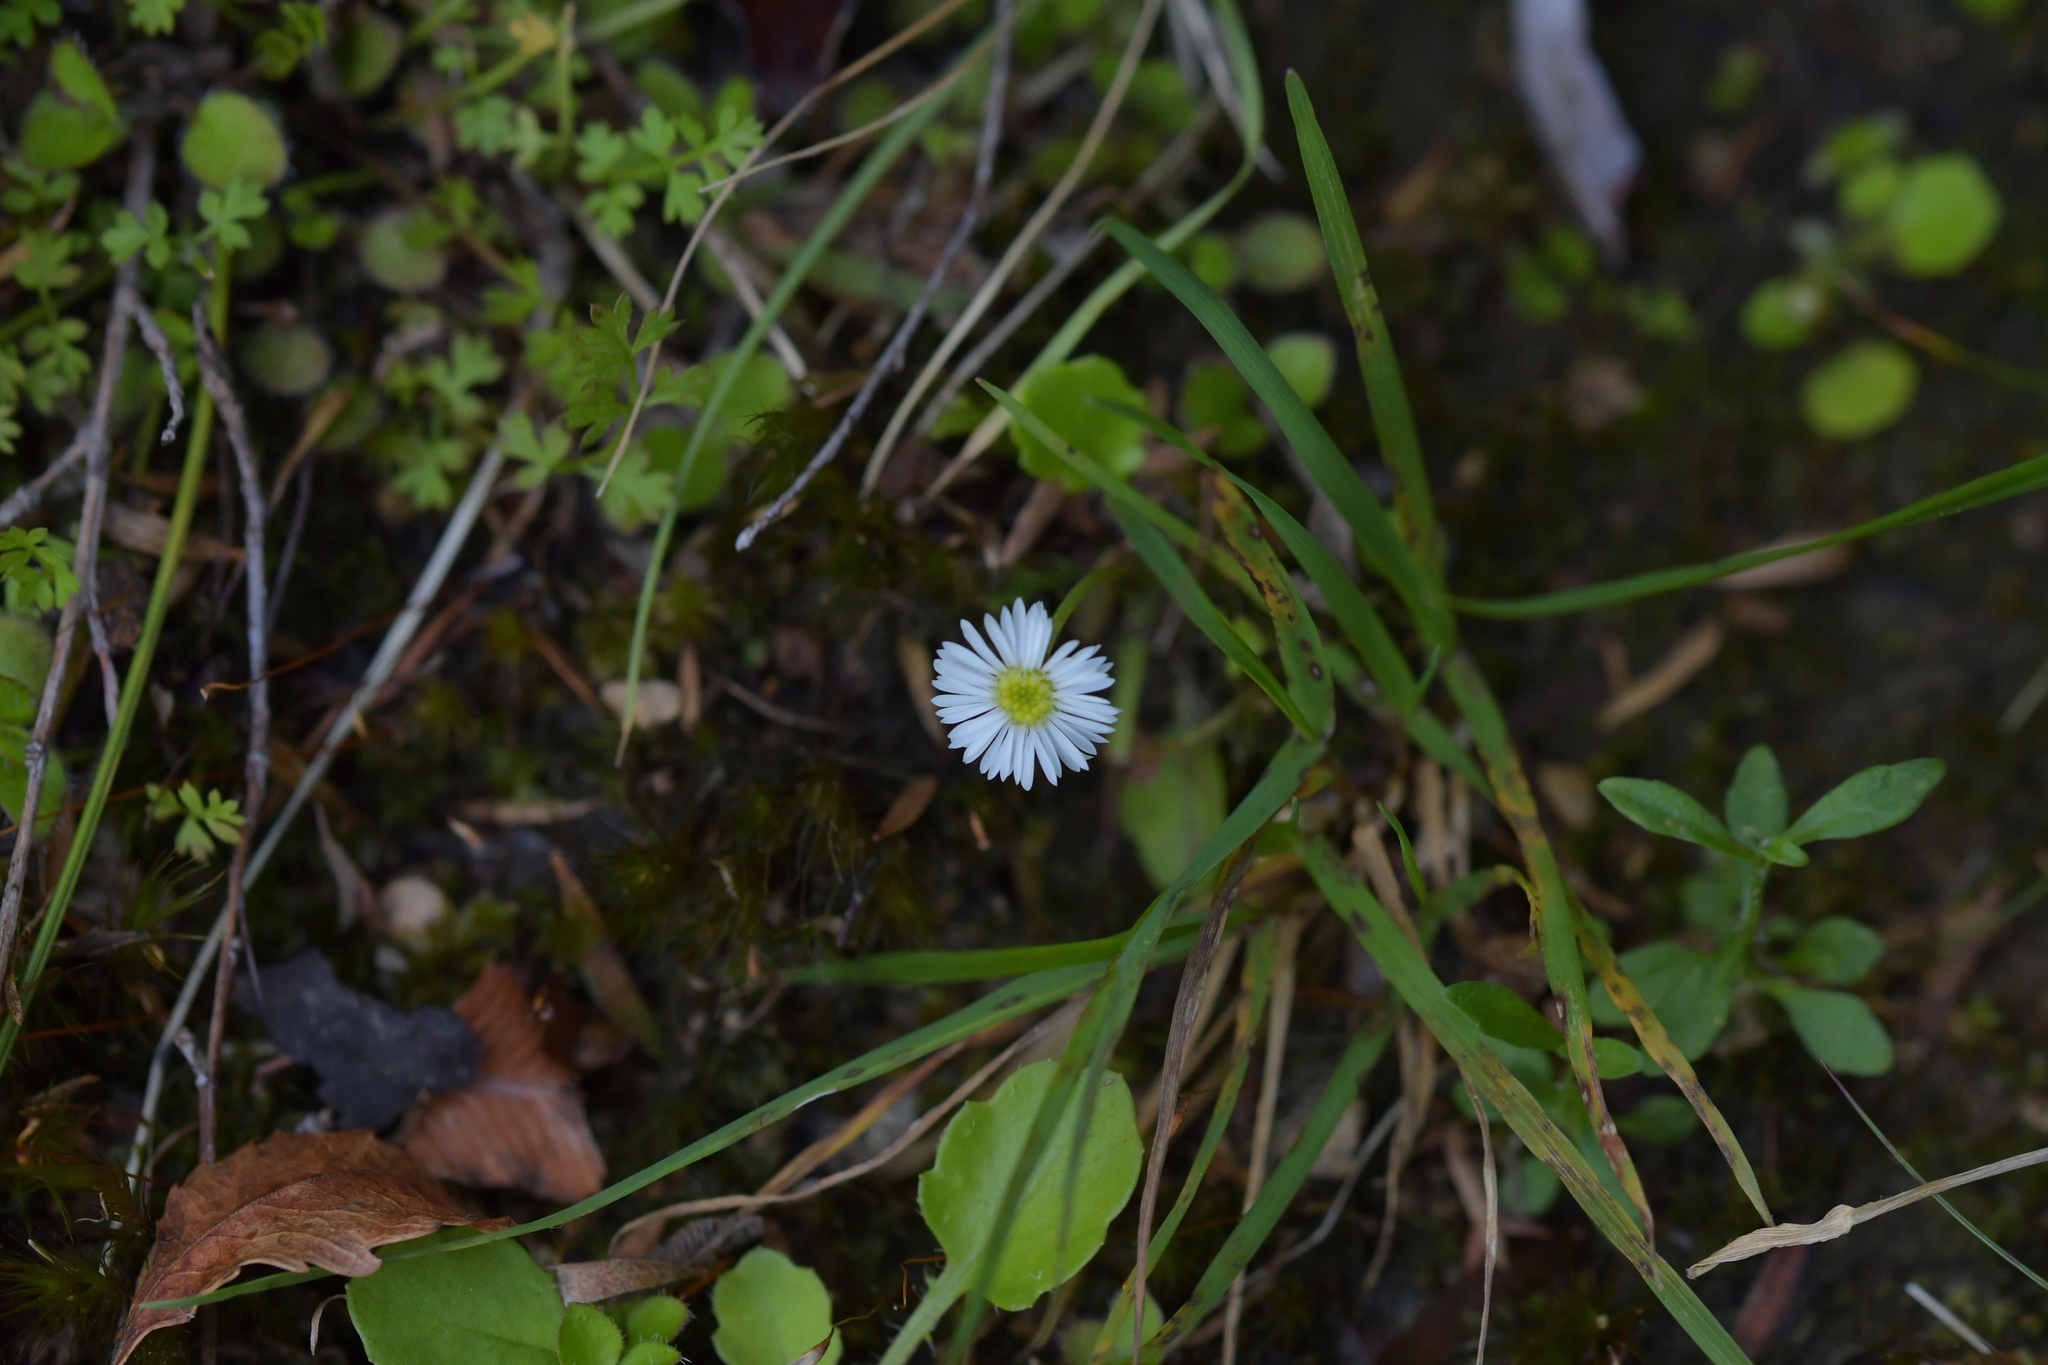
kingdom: Plantae
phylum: Tracheophyta
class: Magnoliopsida
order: Asterales
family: Asteraceae
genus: Lagenophora
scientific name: Lagenophora pumila
